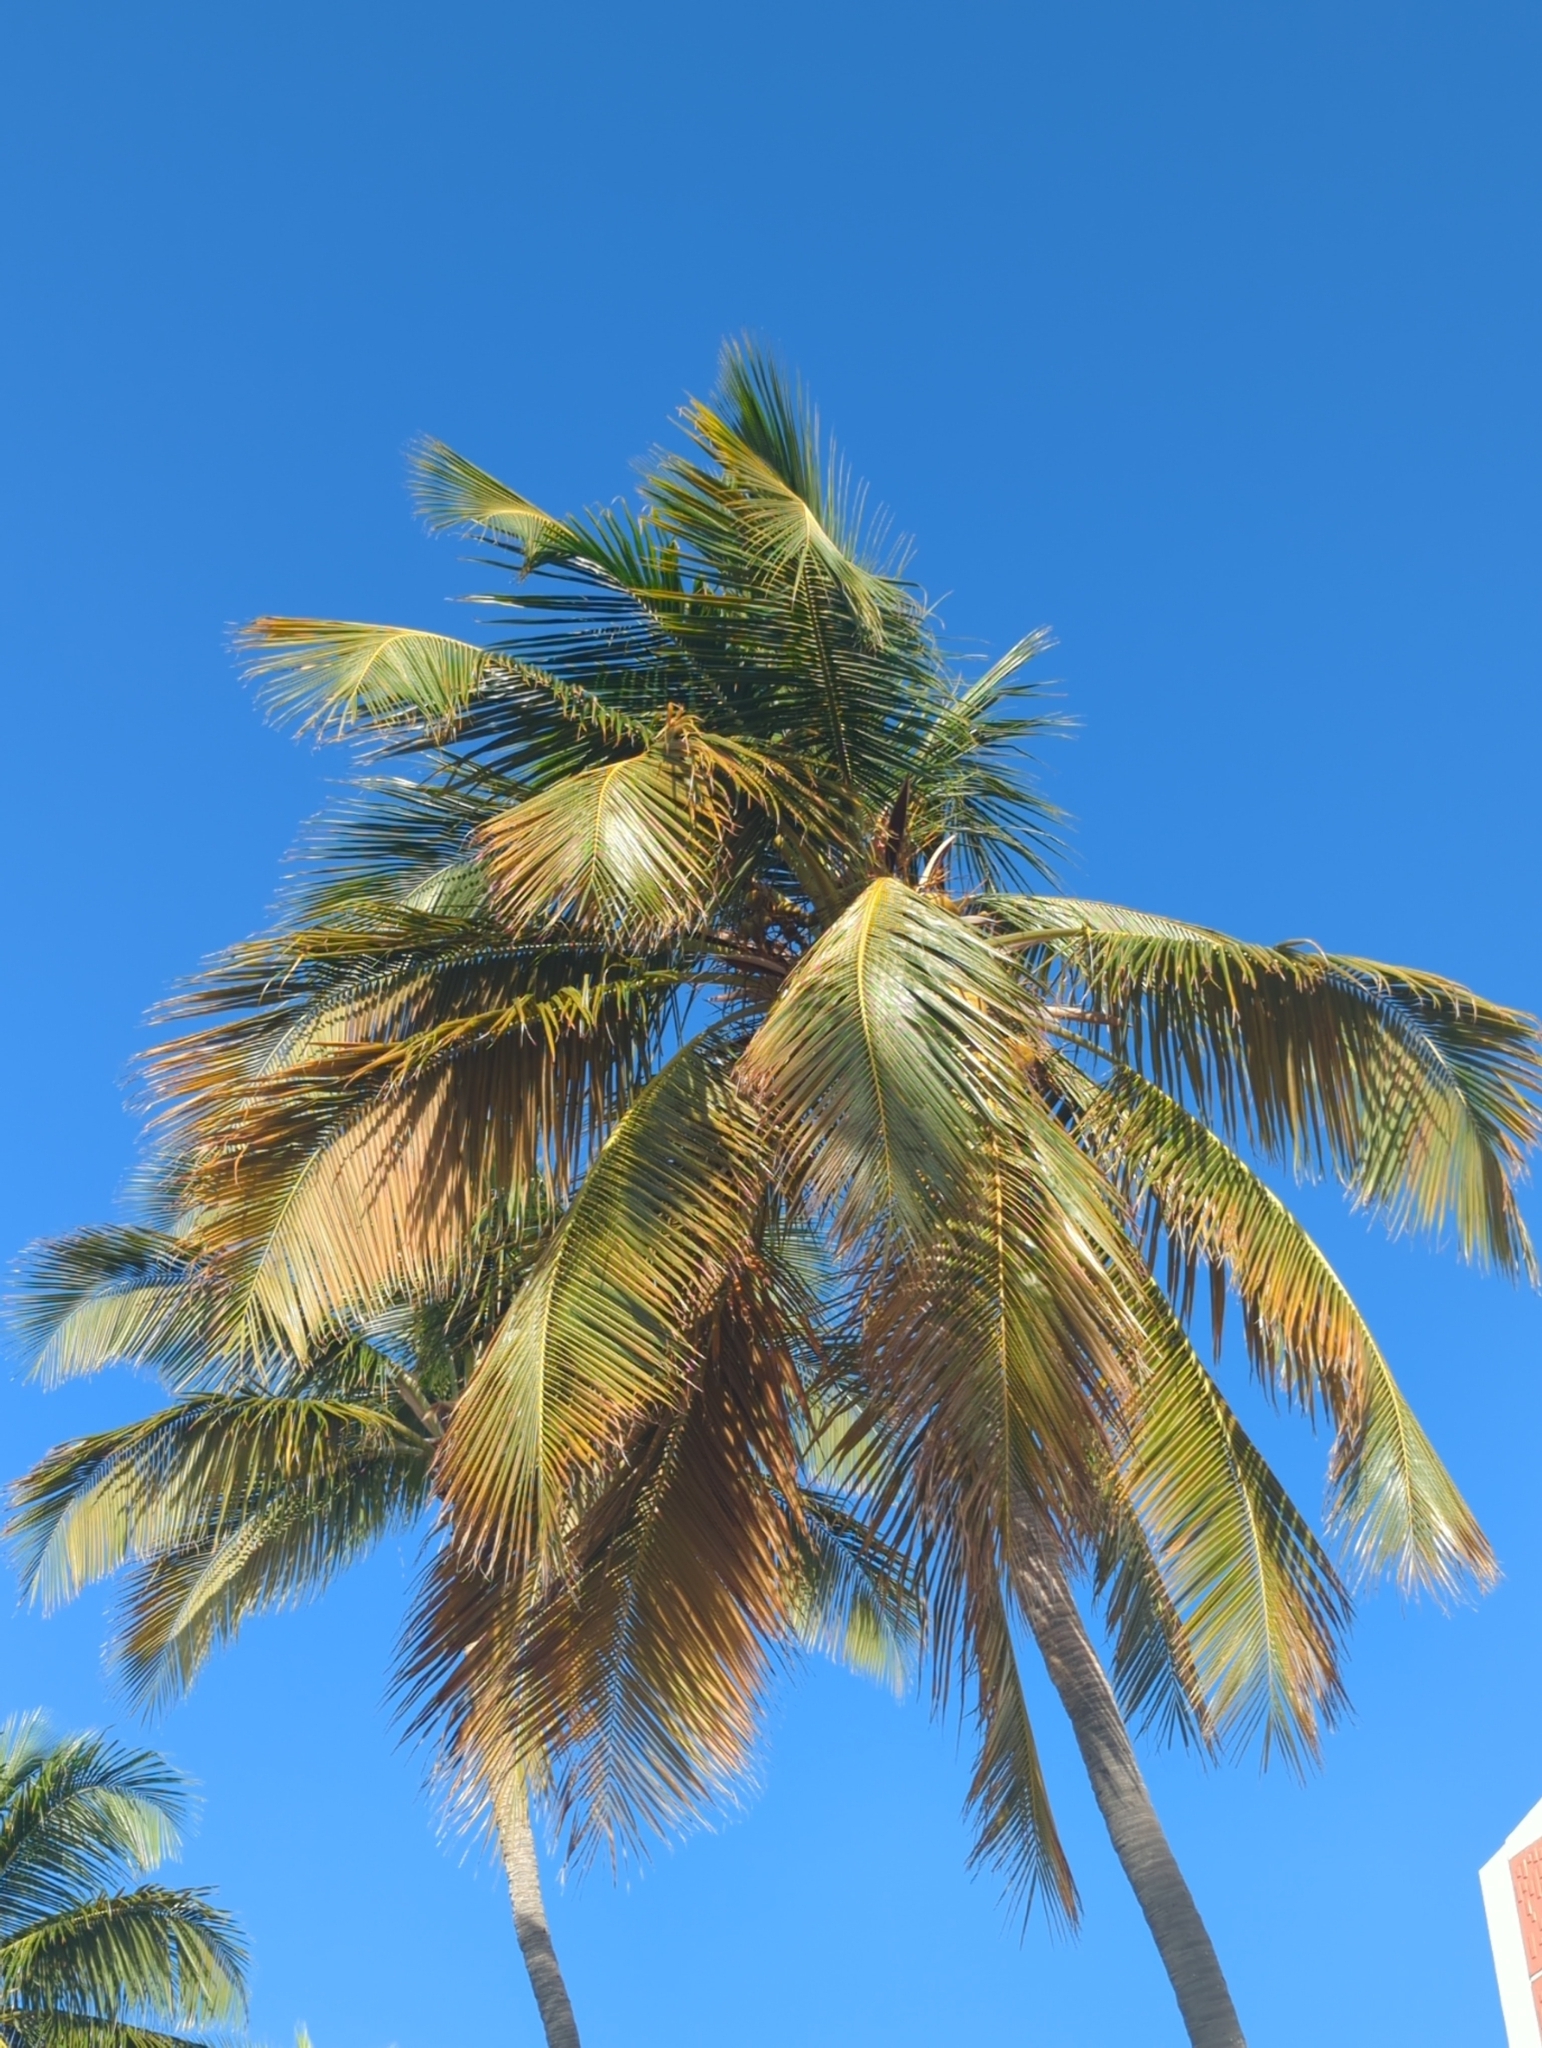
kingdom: Plantae
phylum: Tracheophyta
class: Liliopsida
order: Arecales
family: Arecaceae
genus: Cocos
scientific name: Cocos nucifera
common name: Coconut palm
